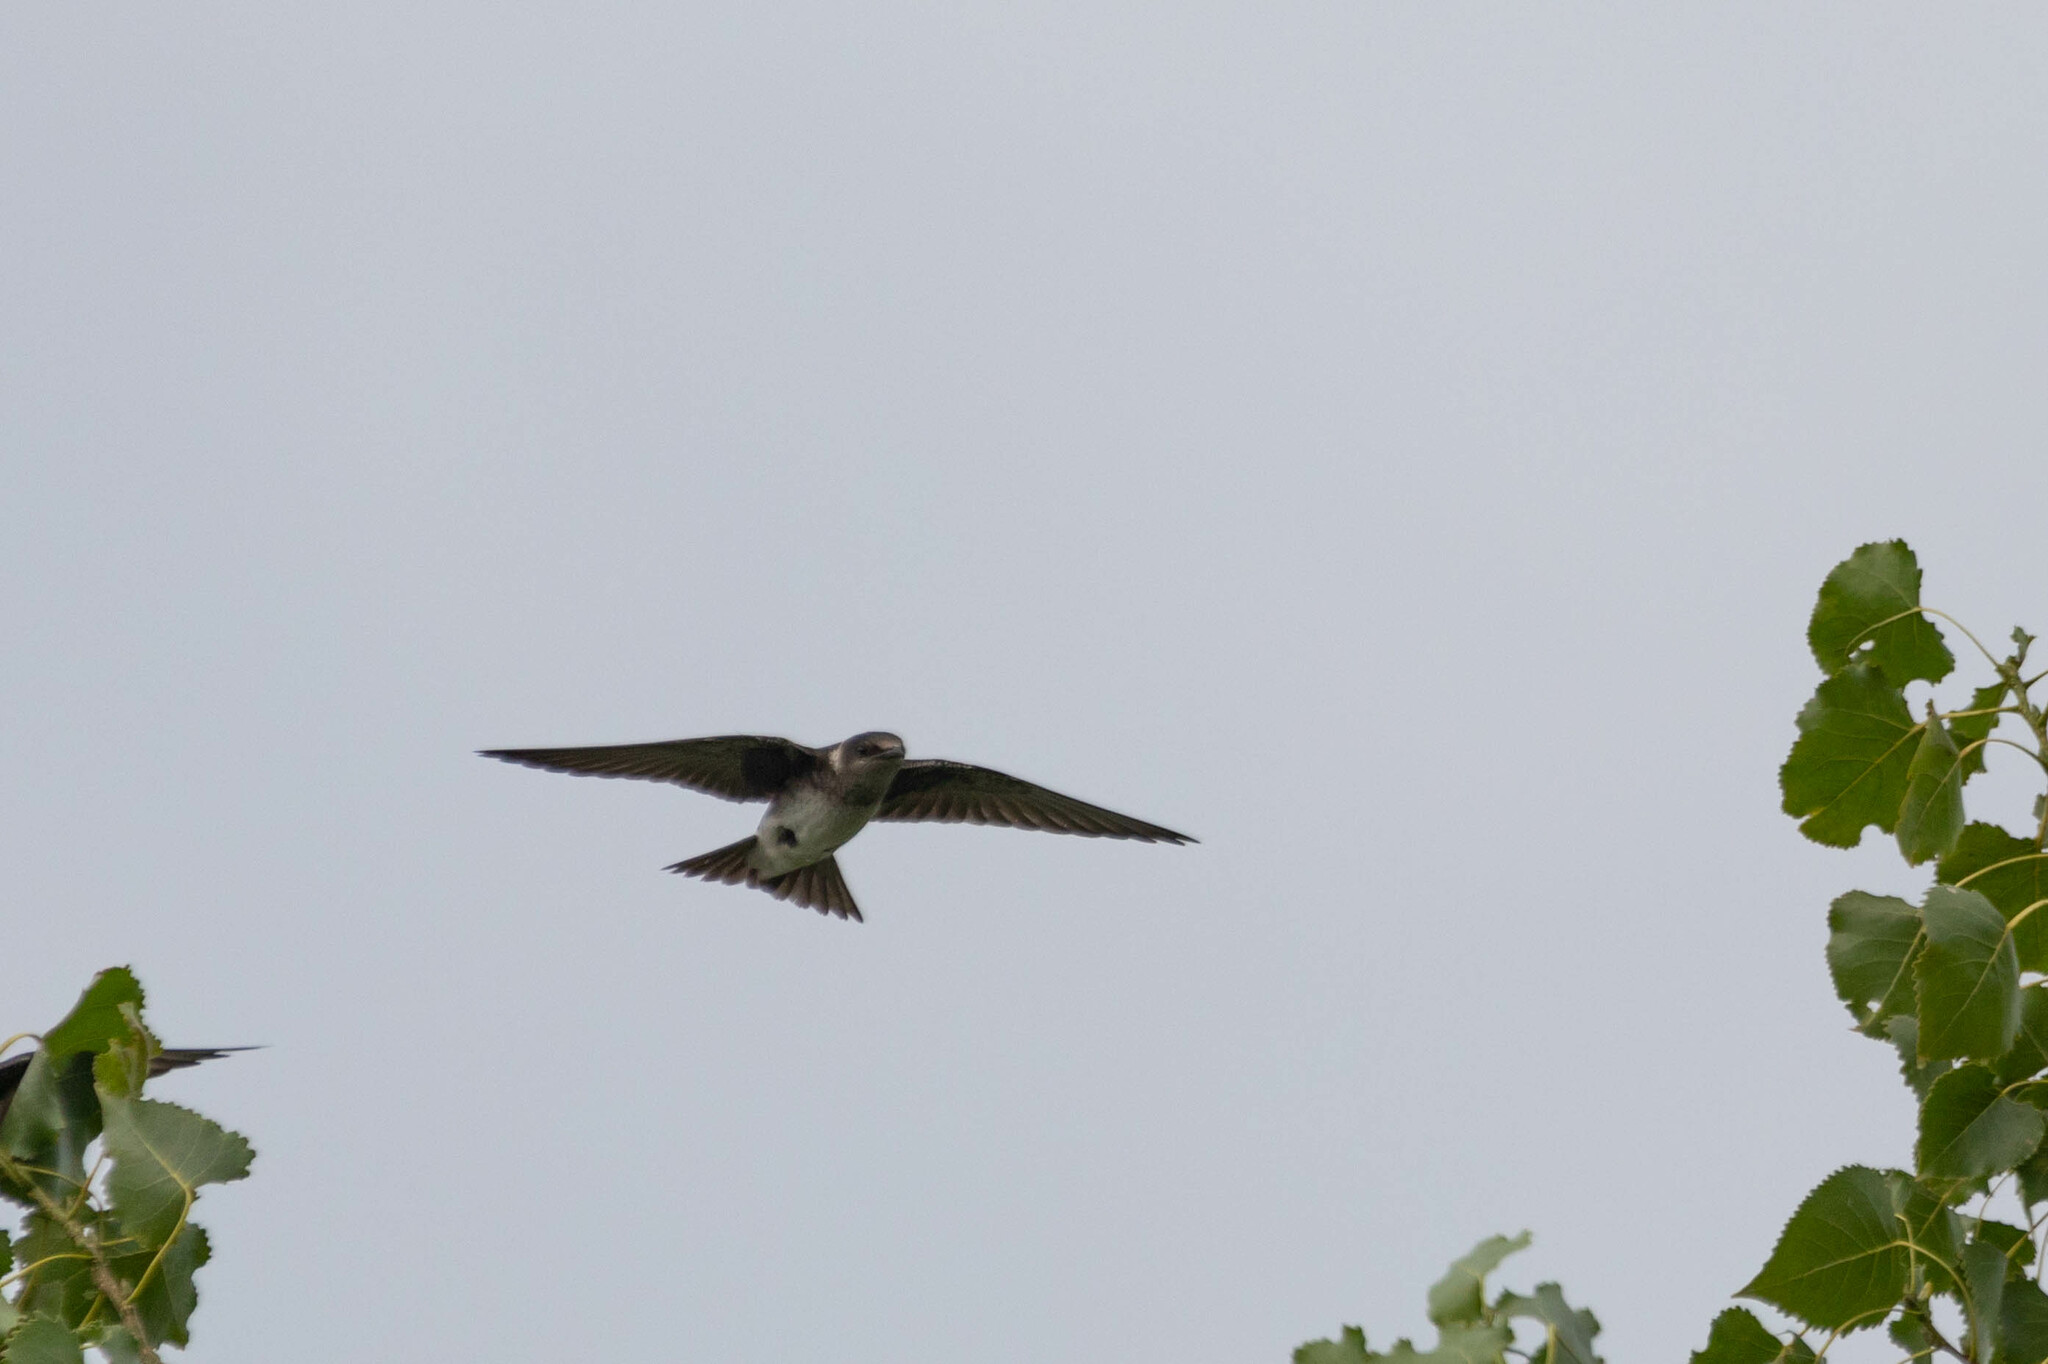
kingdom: Animalia
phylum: Chordata
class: Aves
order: Passeriformes
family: Hirundinidae
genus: Progne
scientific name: Progne subis
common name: Purple martin
